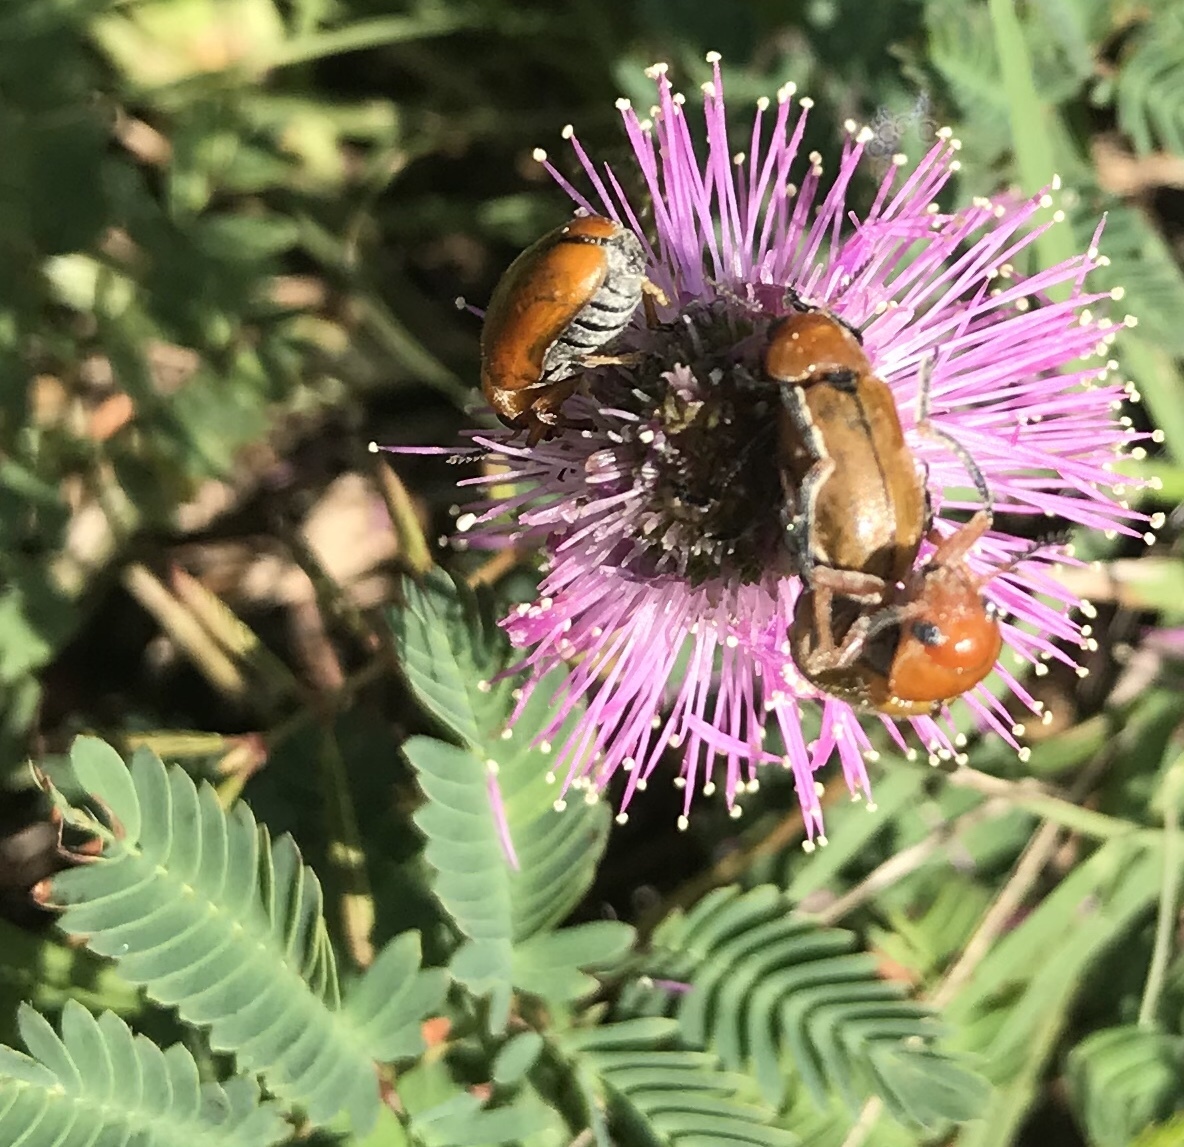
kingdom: Animalia
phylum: Arthropoda
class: Insecta
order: Coleoptera
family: Chrysomelidae
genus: Anomoea
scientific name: Anomoea laticlavia
